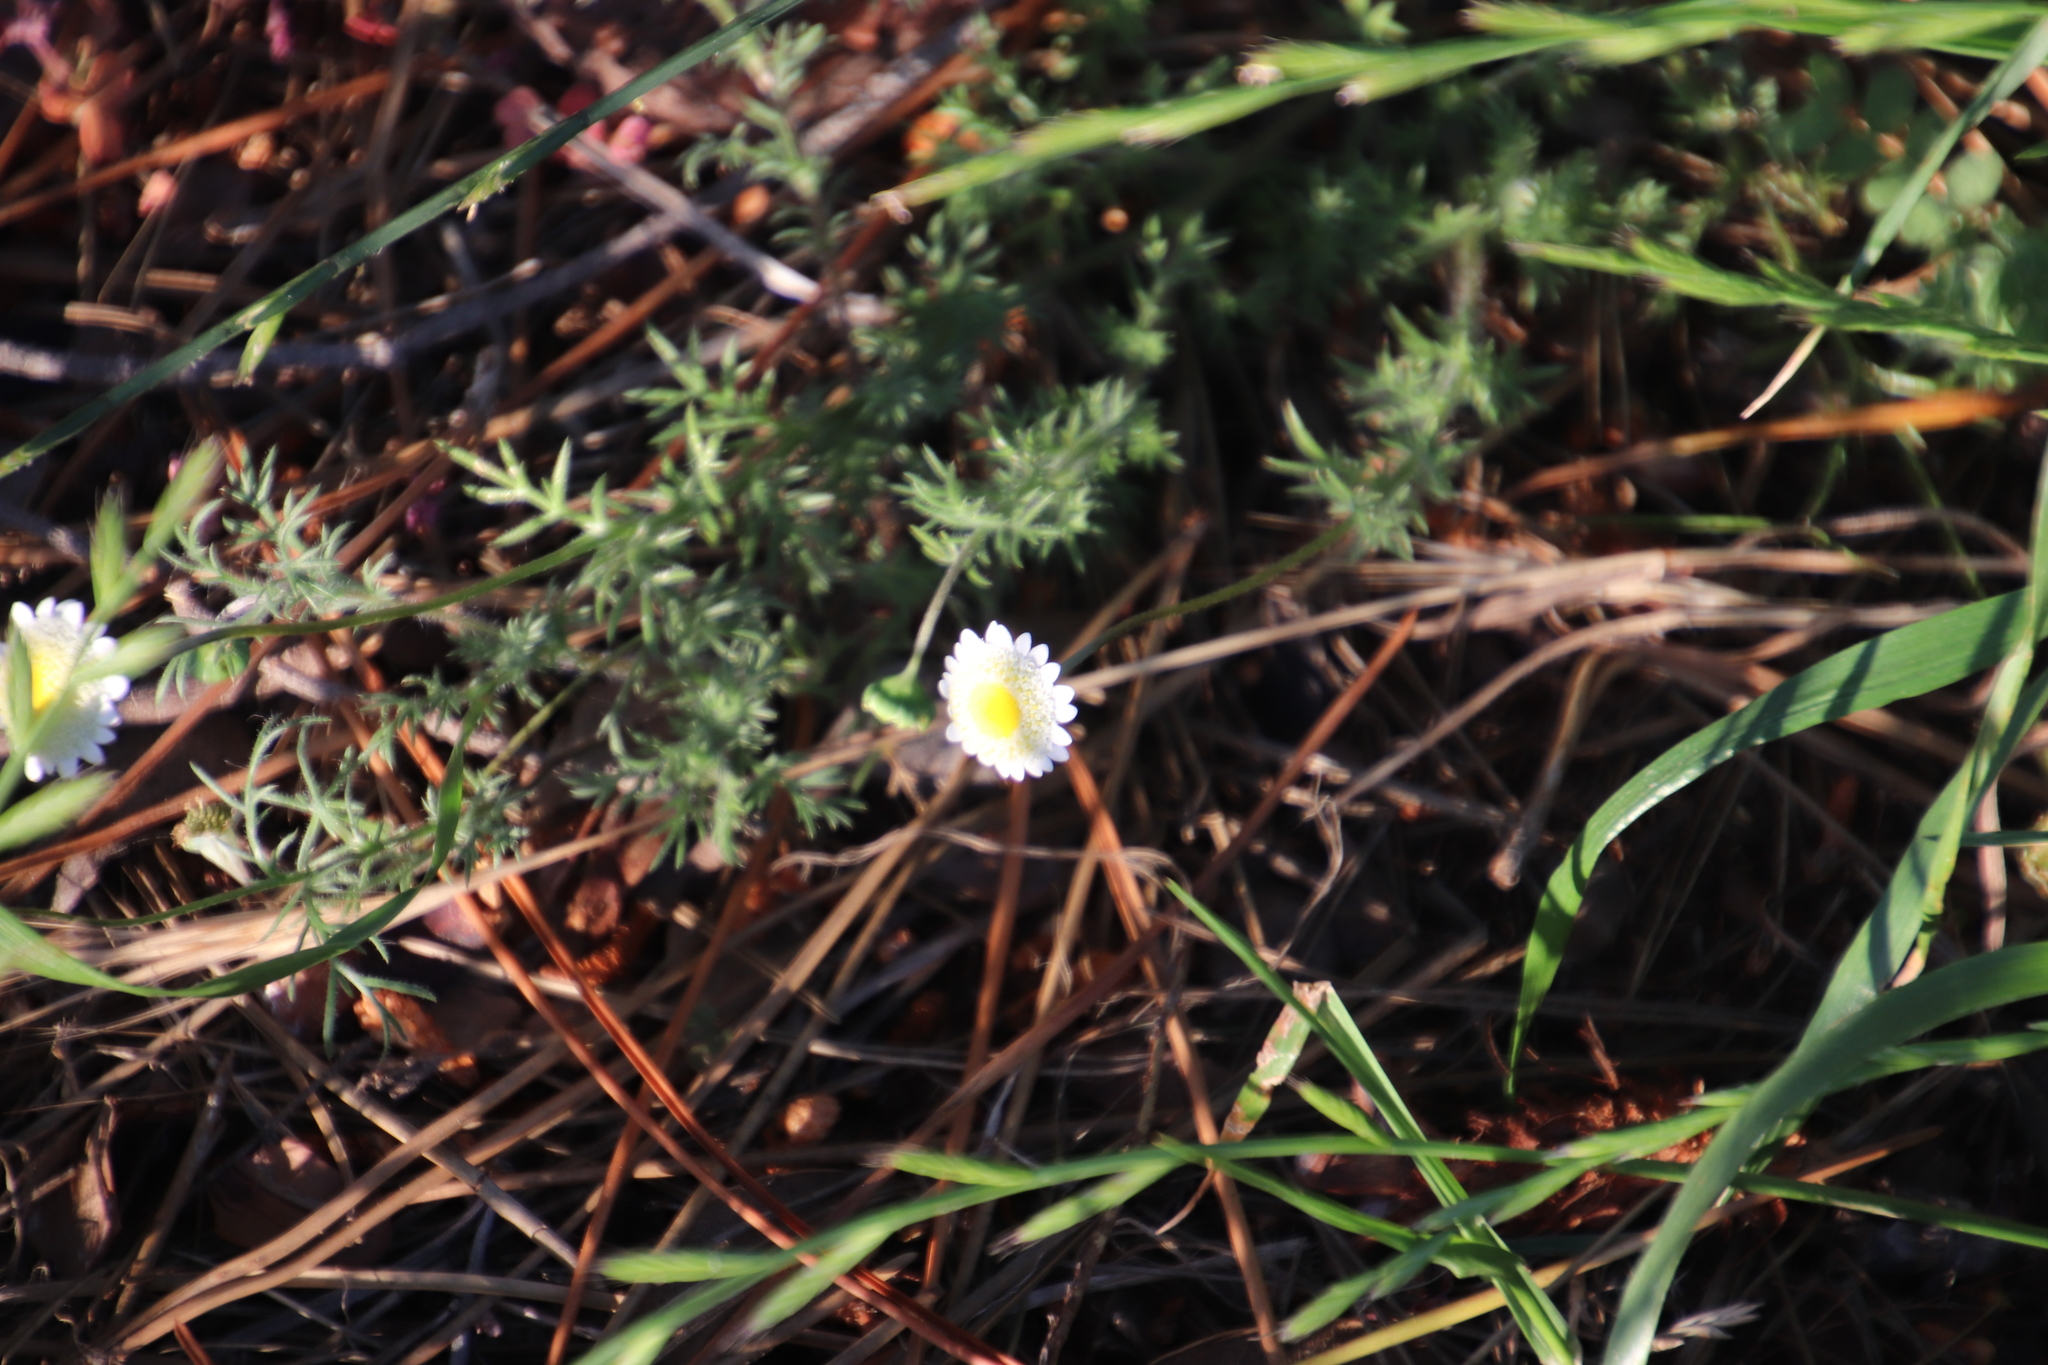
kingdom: Plantae
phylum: Tracheophyta
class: Magnoliopsida
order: Asterales
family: Asteraceae
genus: Cotula
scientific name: Cotula turbinata
